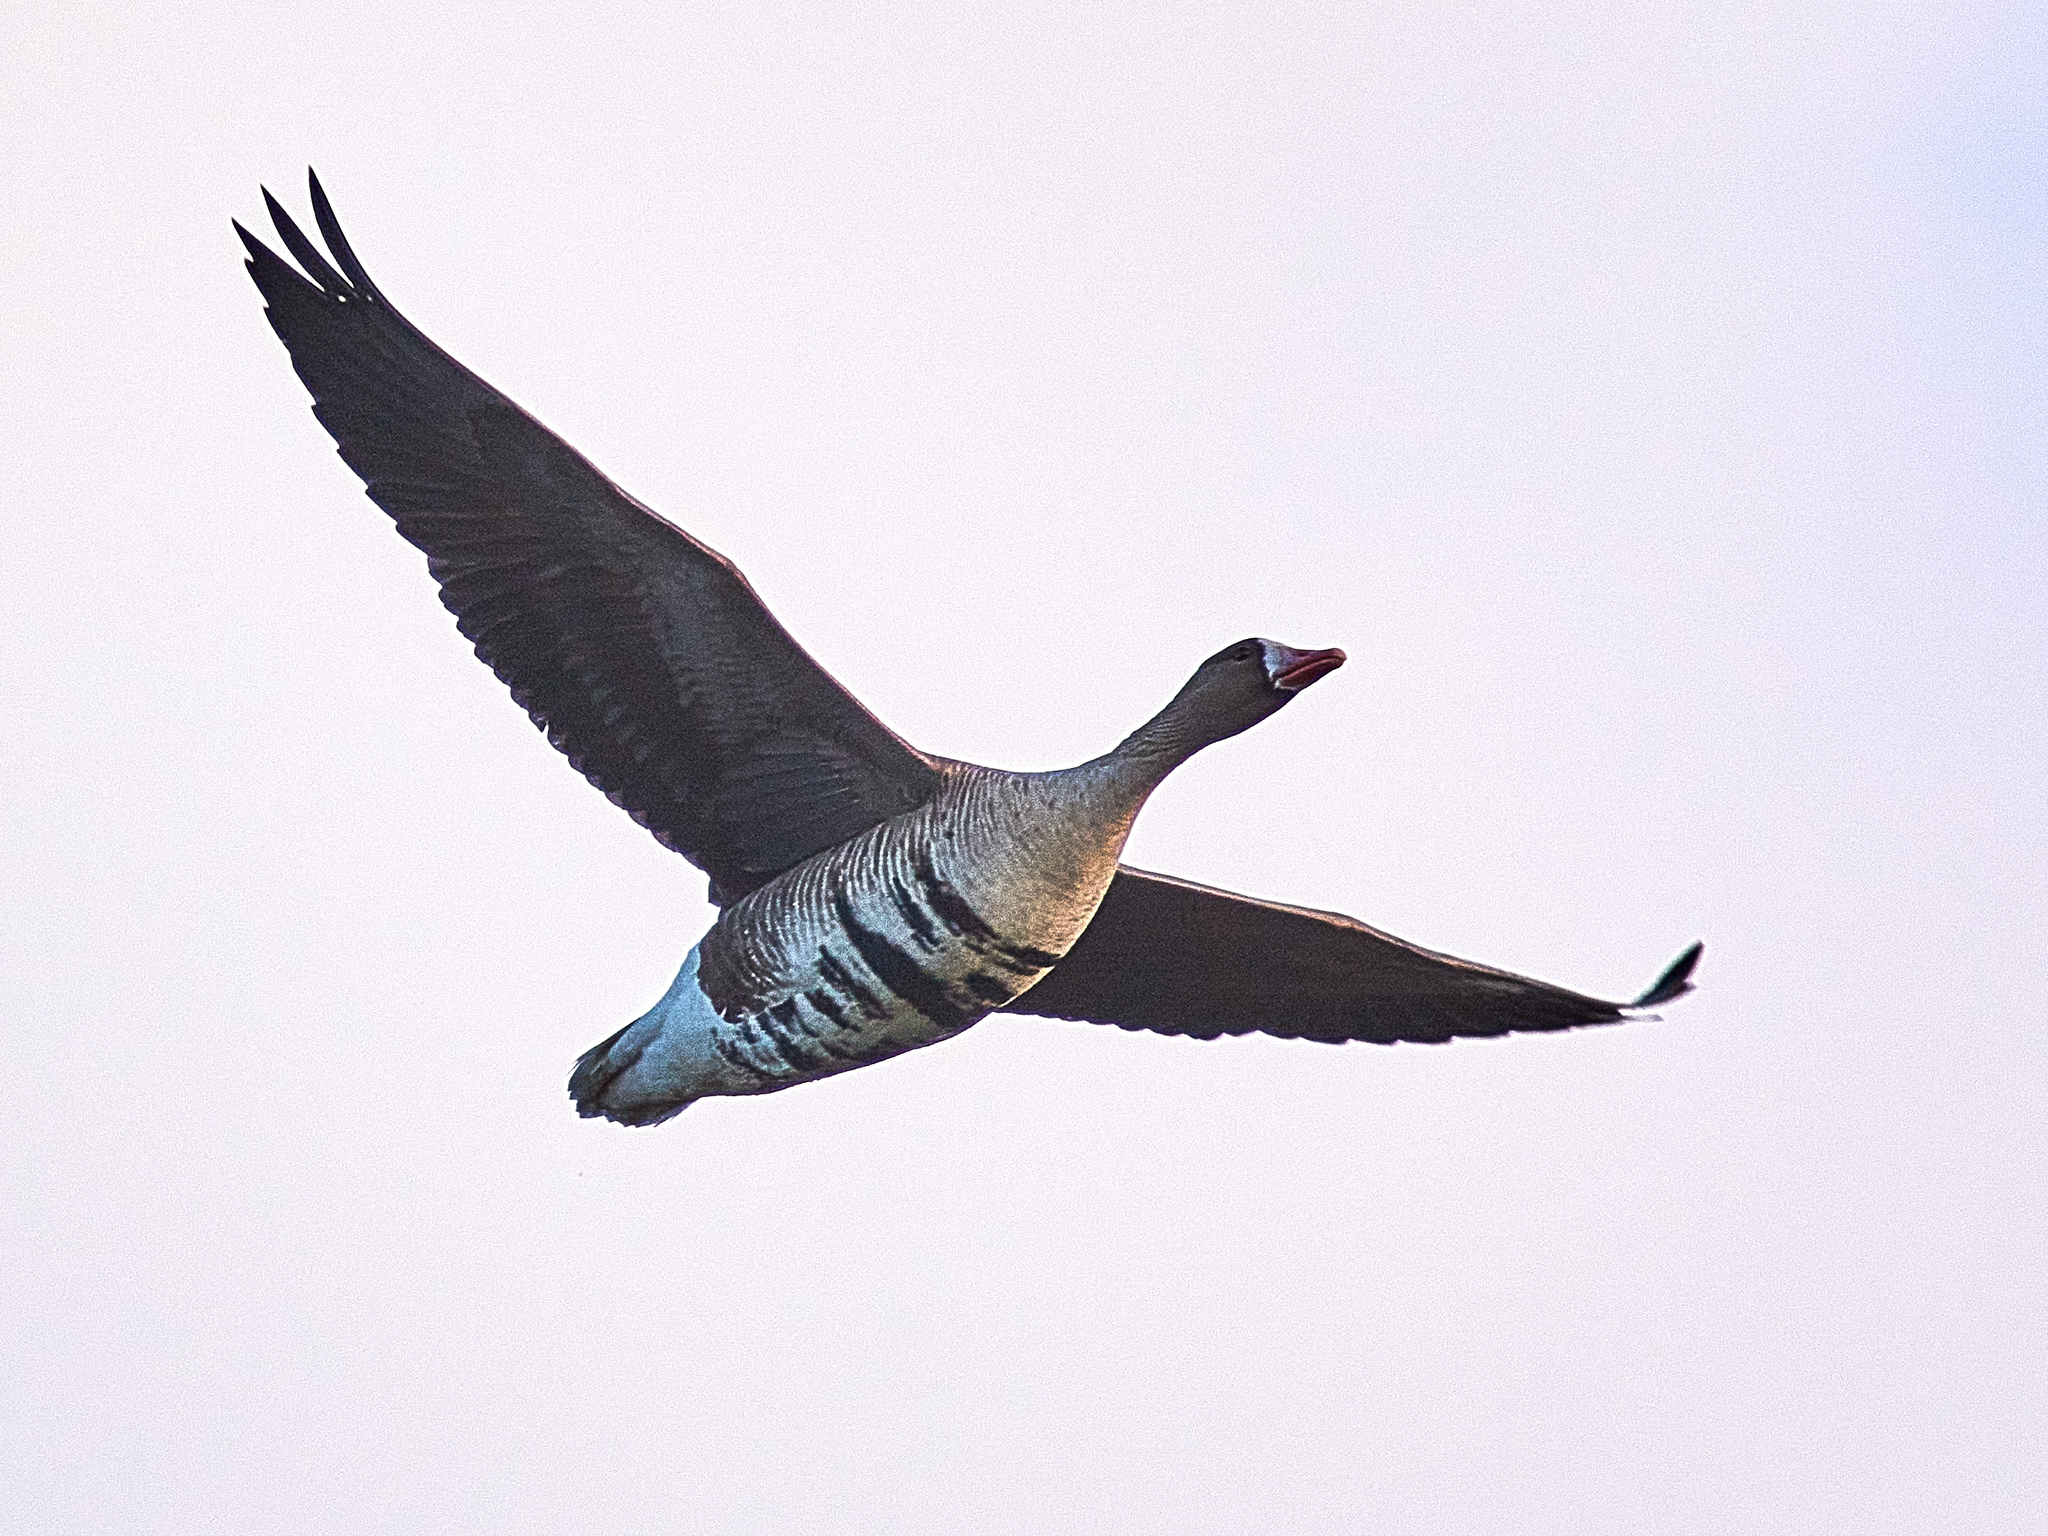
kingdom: Animalia
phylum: Chordata
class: Aves
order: Anseriformes
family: Anatidae
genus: Anser
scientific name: Anser albifrons
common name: Greater white-fronted goose
